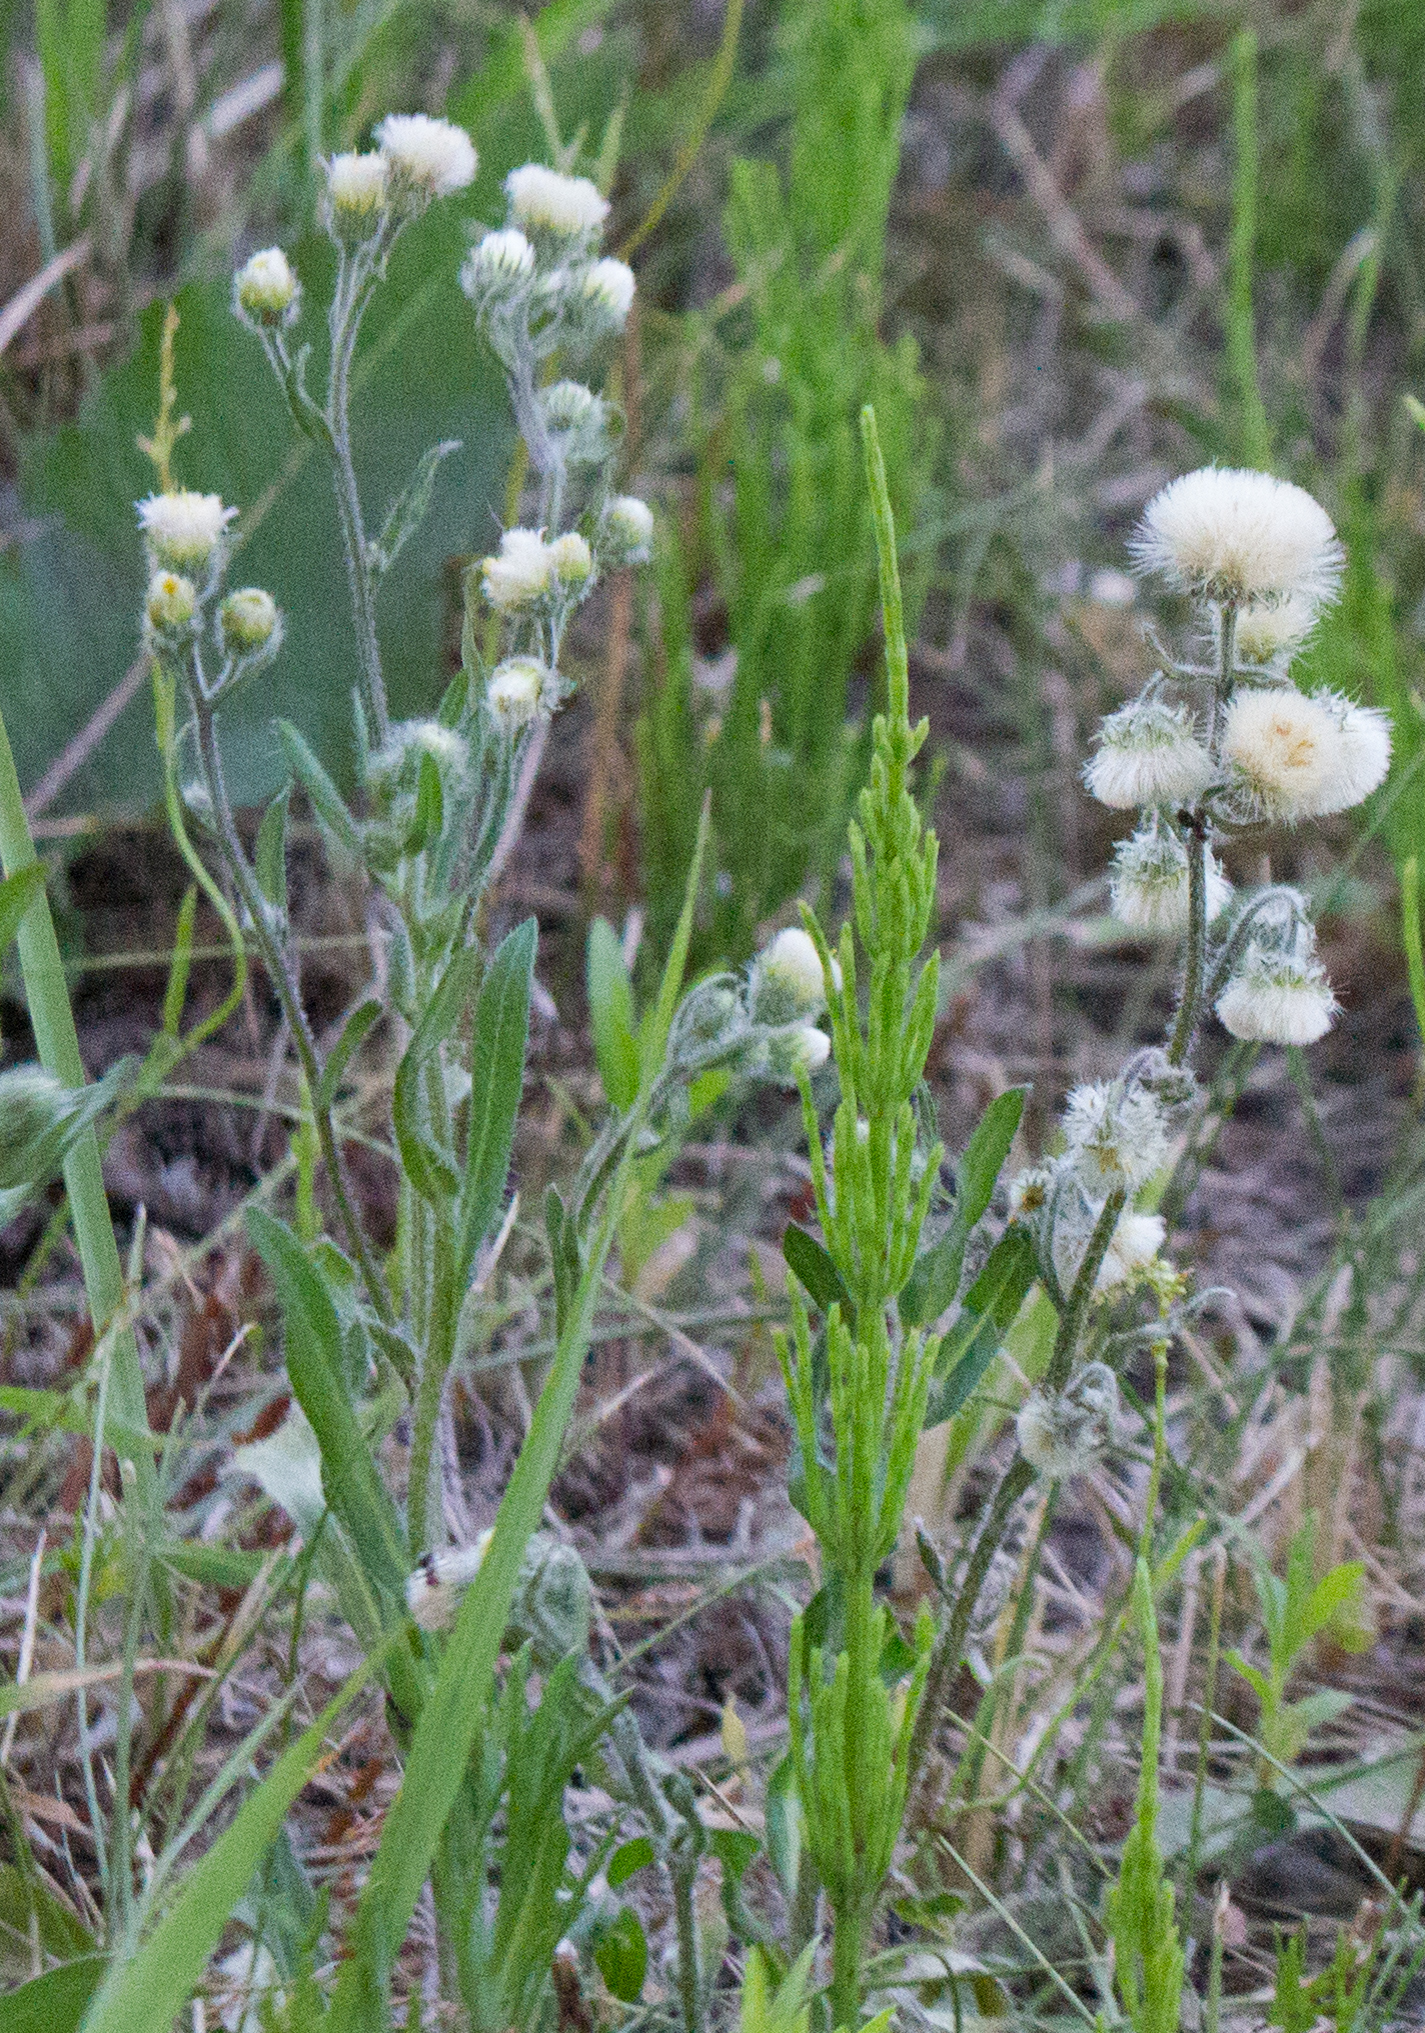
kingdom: Plantae
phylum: Tracheophyta
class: Magnoliopsida
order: Asterales
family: Asteraceae
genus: Erigeron
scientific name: Erigeron acris
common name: Blue fleabane
